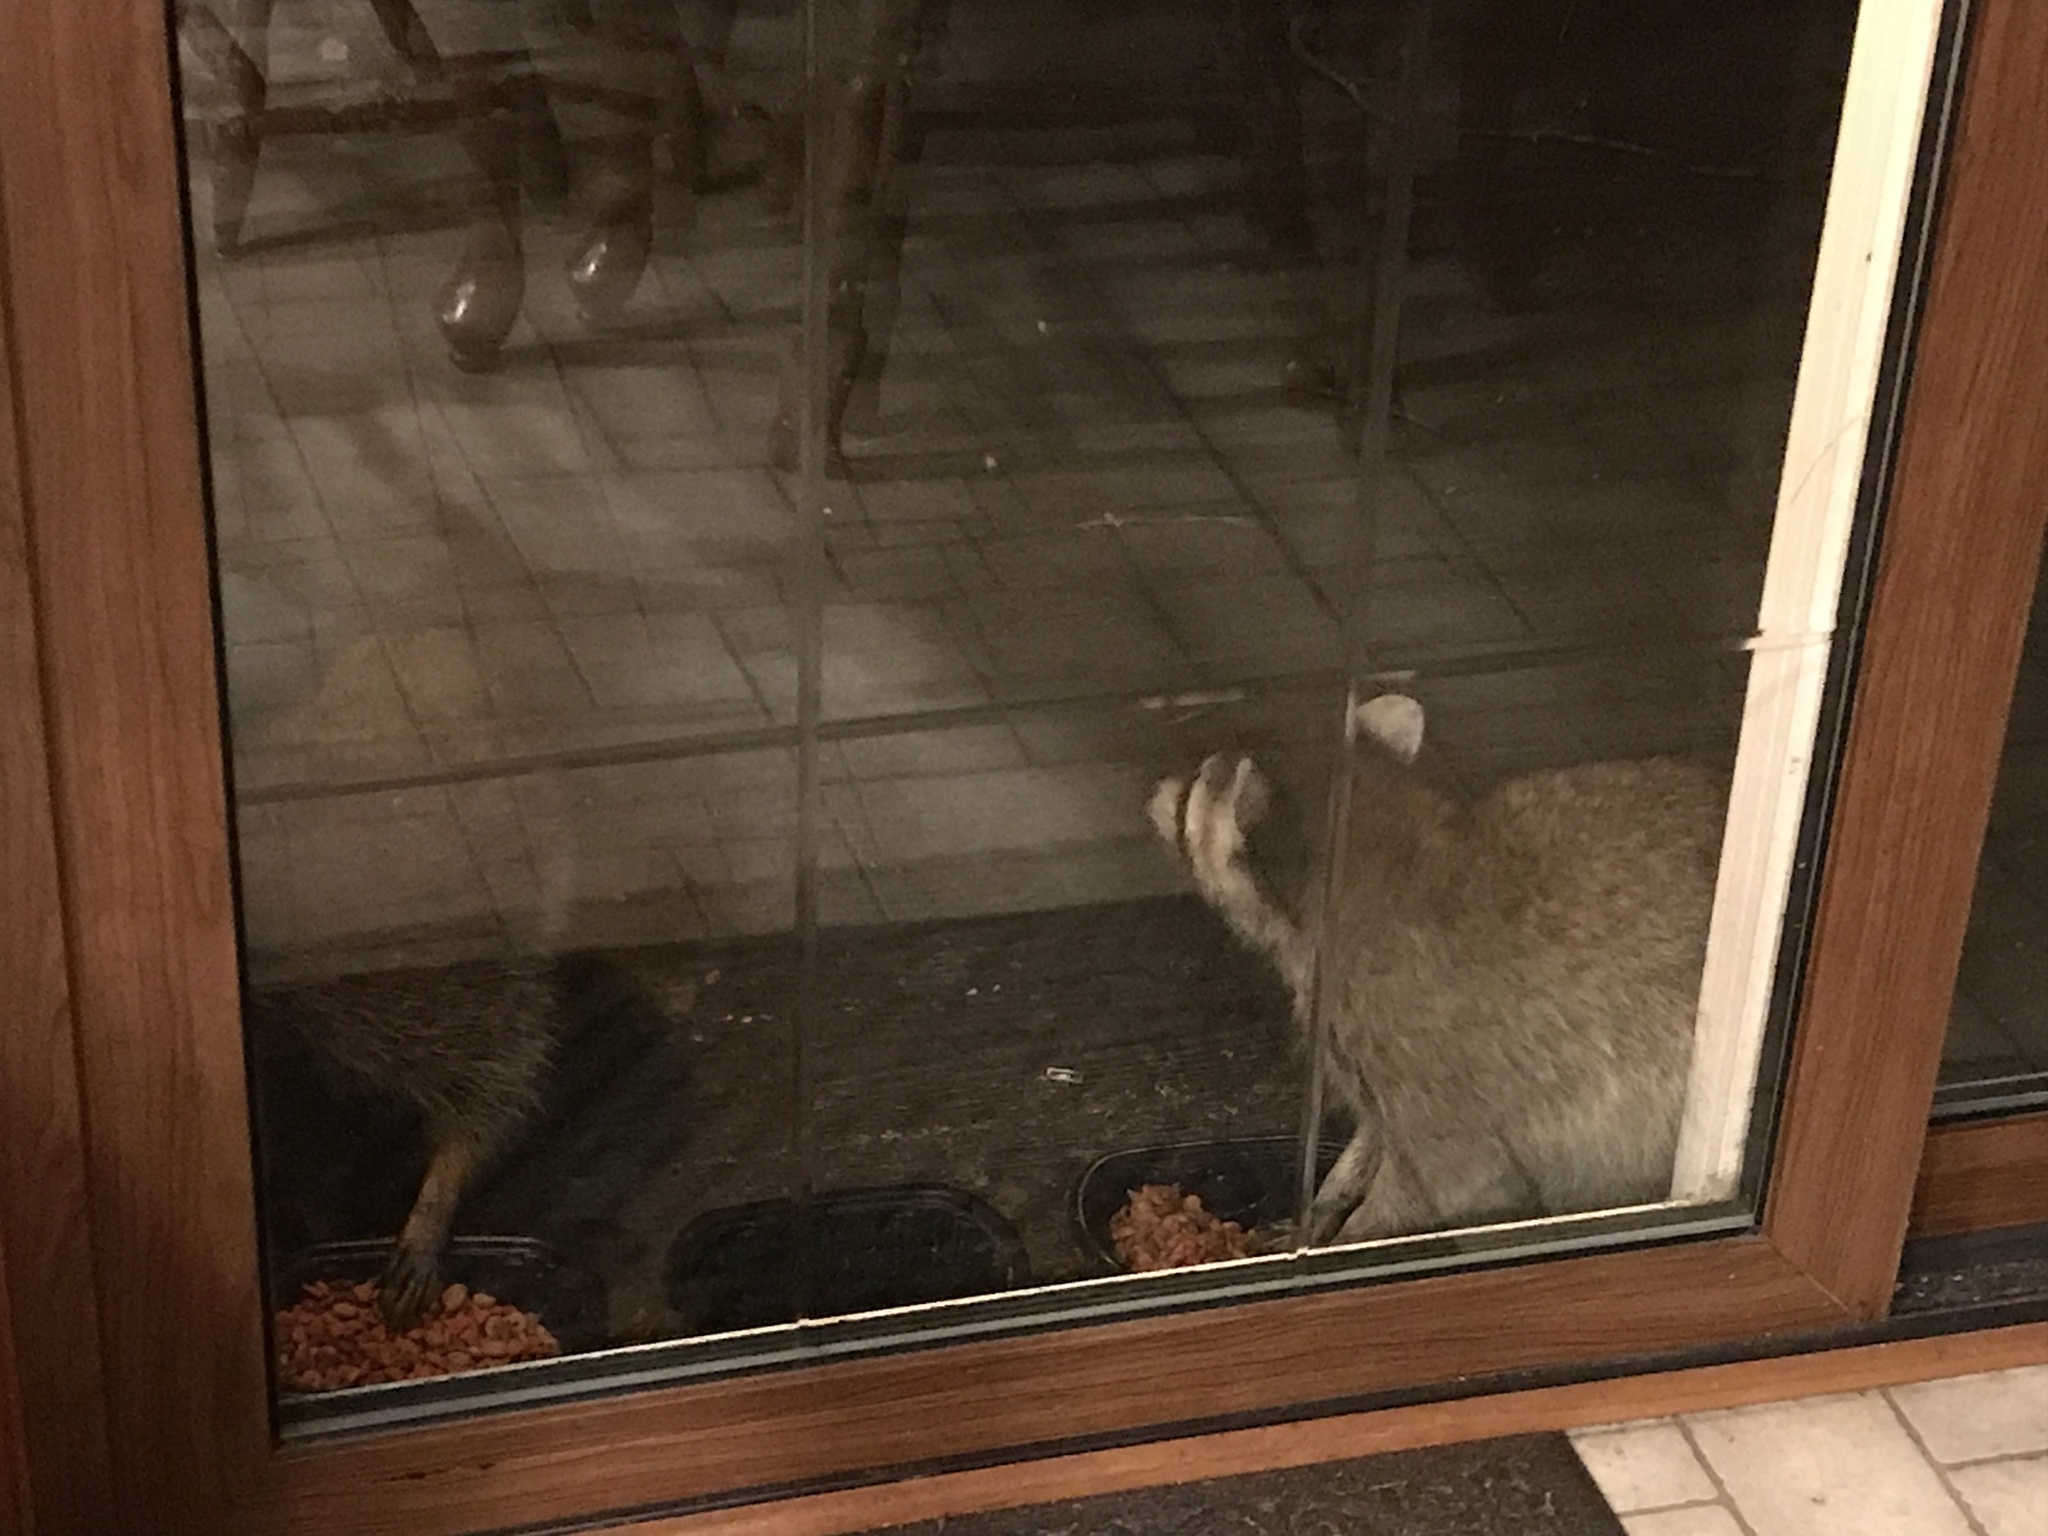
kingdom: Animalia
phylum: Chordata
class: Mammalia
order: Carnivora
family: Procyonidae
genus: Procyon
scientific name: Procyon lotor
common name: Raccoon
